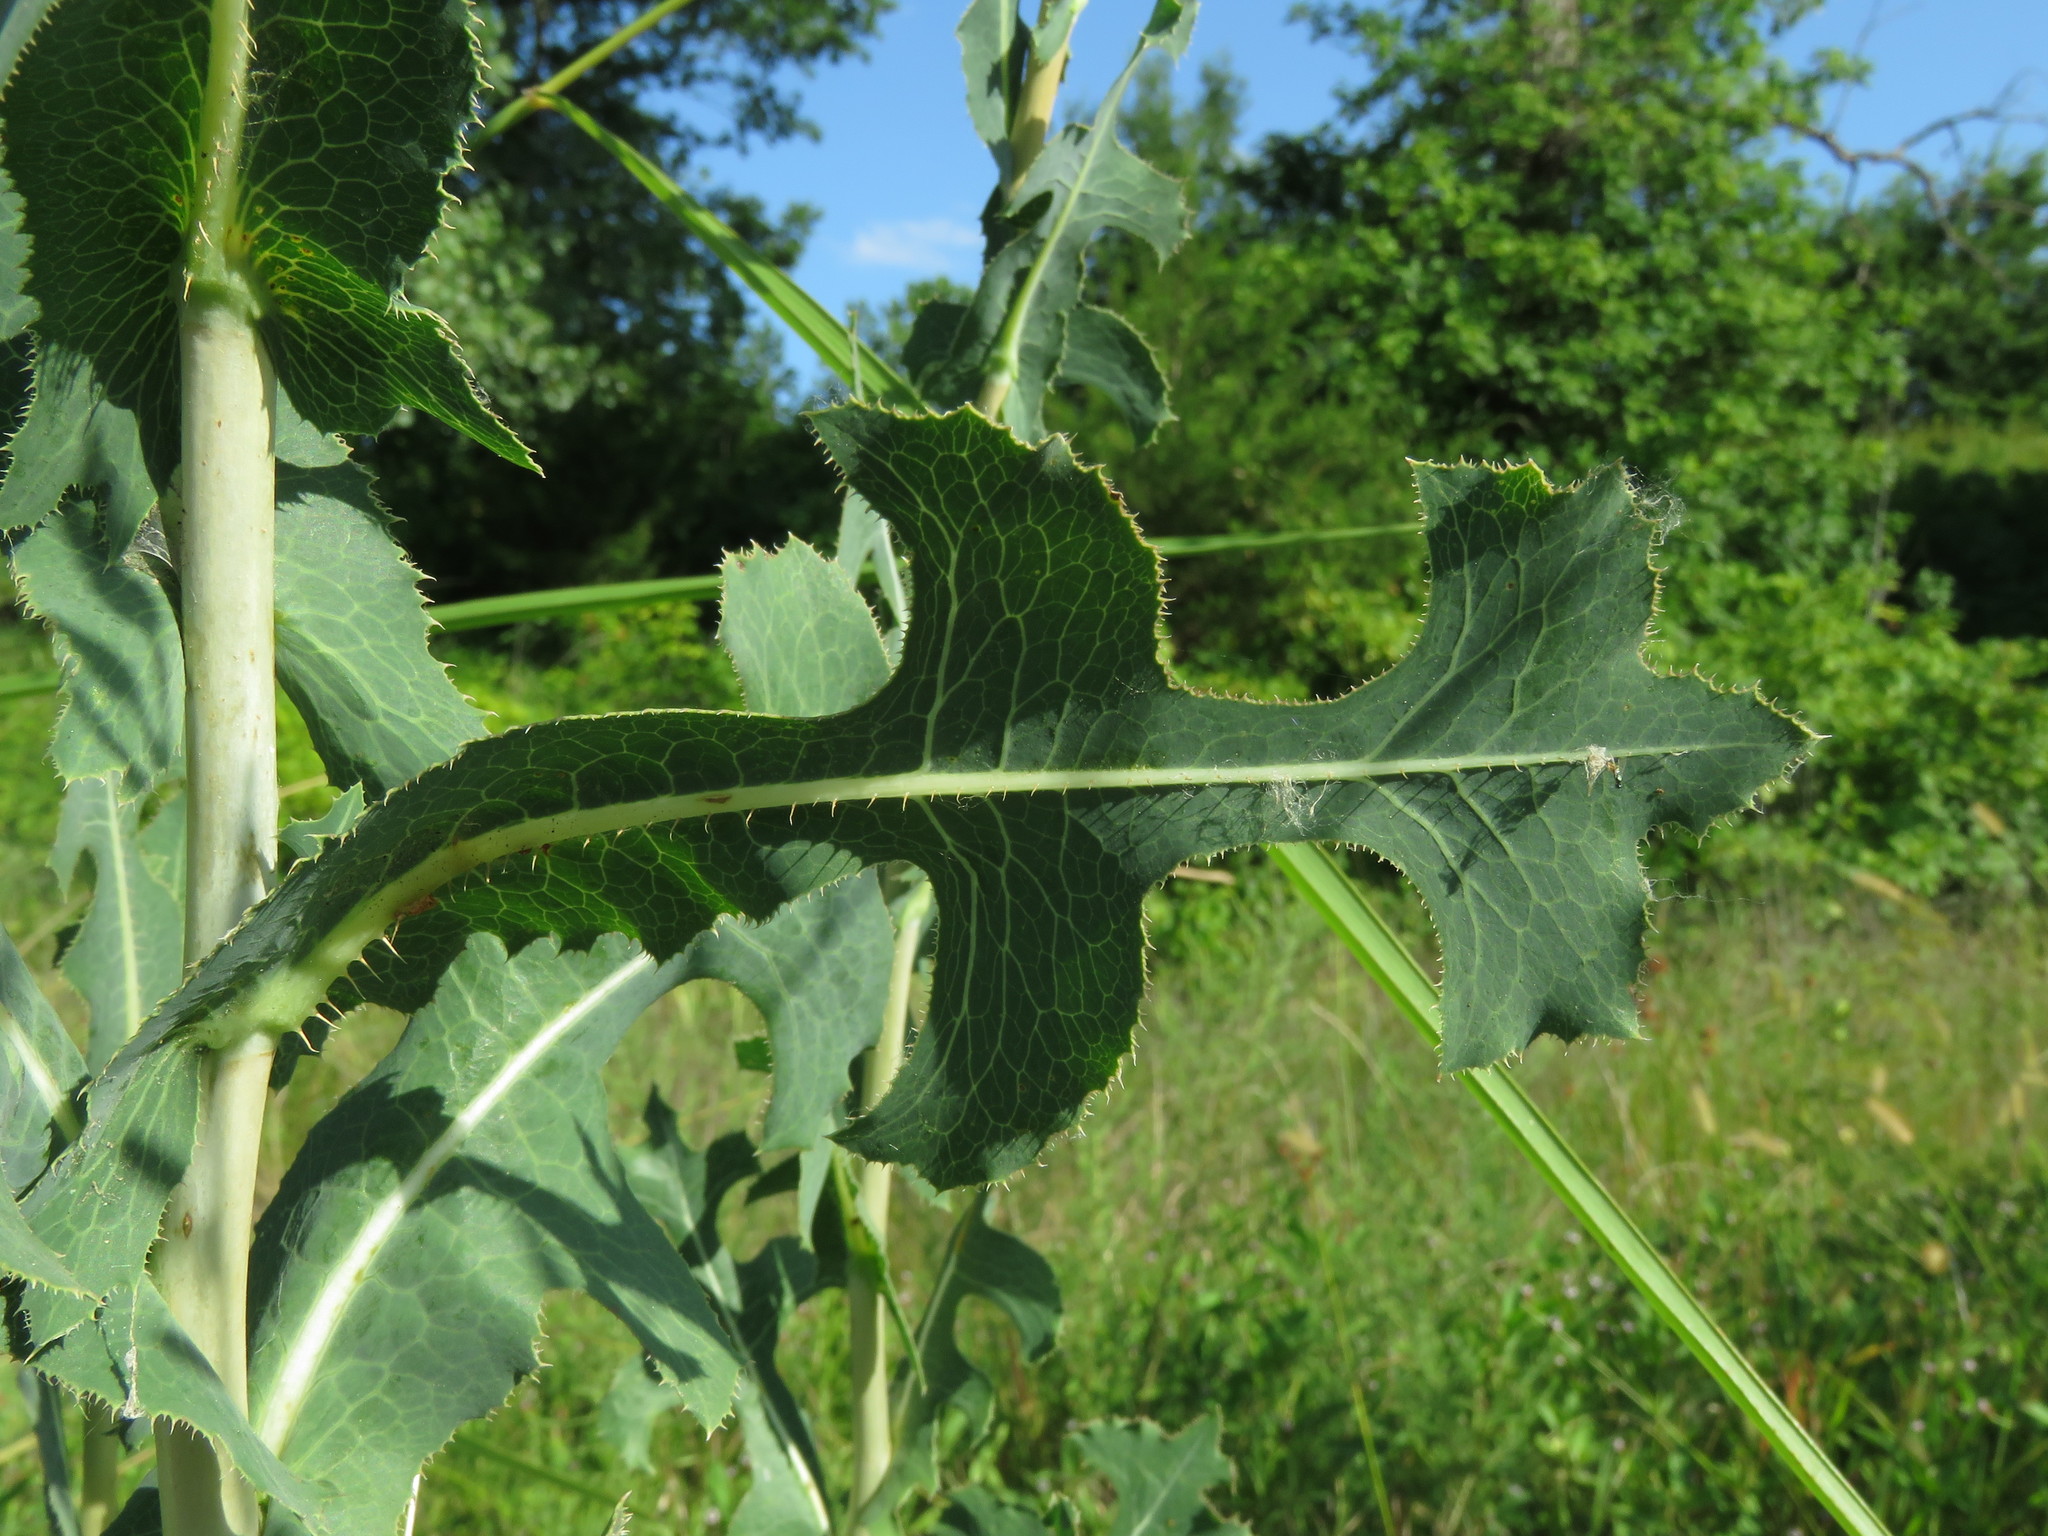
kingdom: Plantae
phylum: Tracheophyta
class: Magnoliopsida
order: Asterales
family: Asteraceae
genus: Lactuca
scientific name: Lactuca serriola
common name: Prickly lettuce
